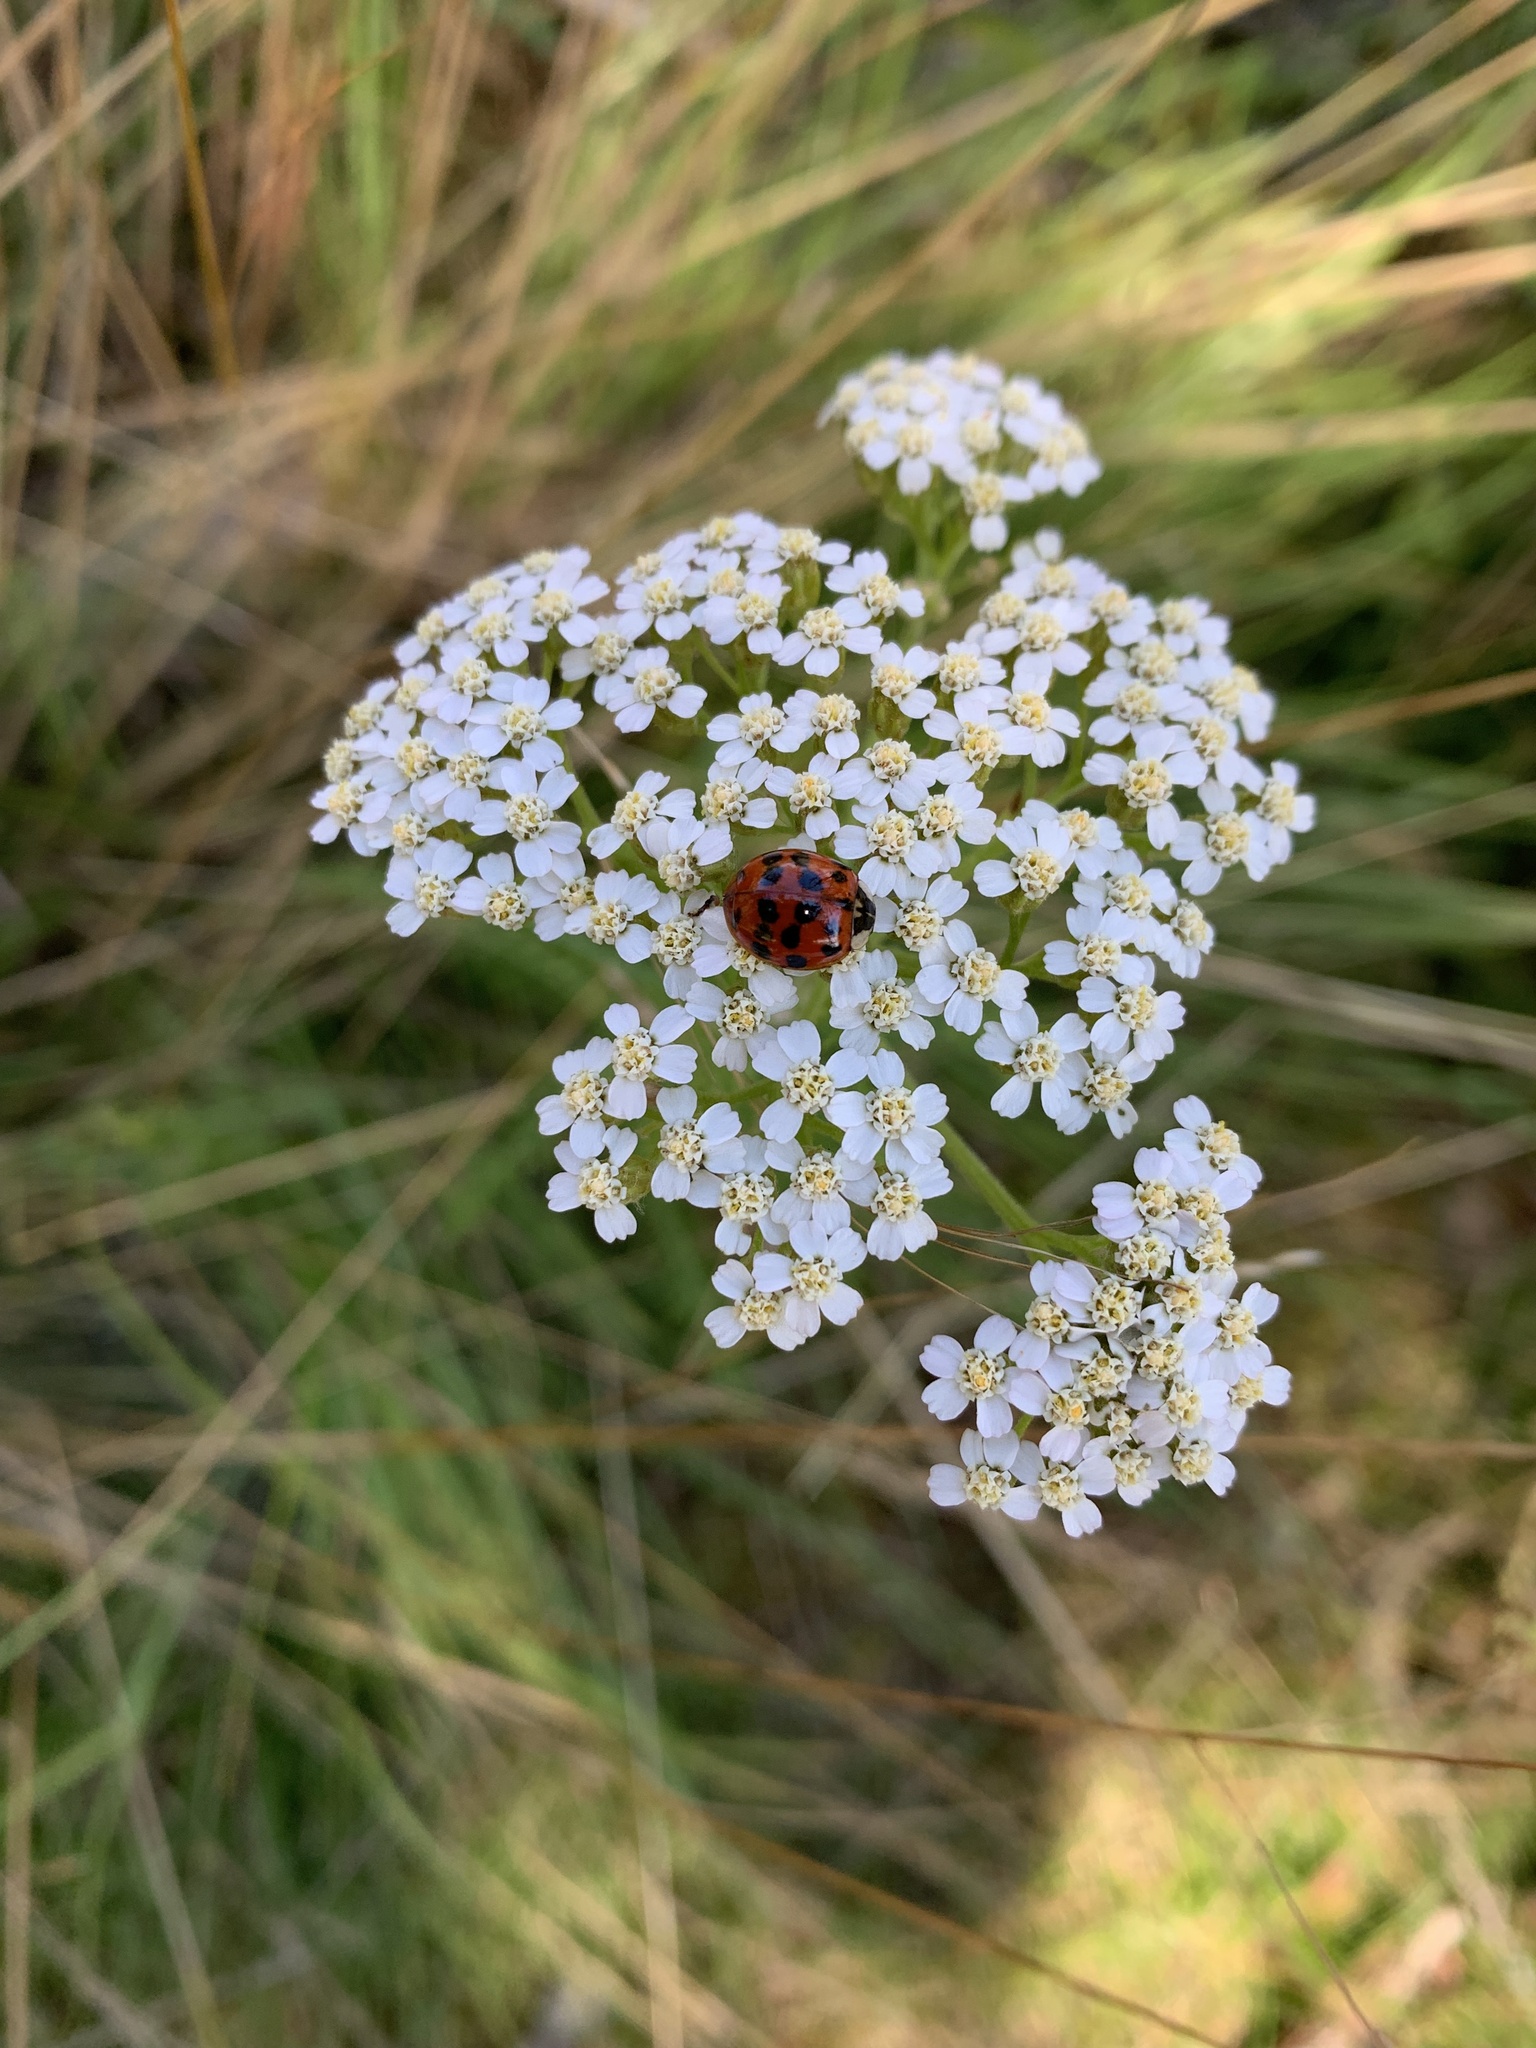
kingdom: Animalia
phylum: Arthropoda
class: Insecta
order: Coleoptera
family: Coccinellidae
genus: Harmonia
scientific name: Harmonia axyridis
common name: Harlequin ladybird
